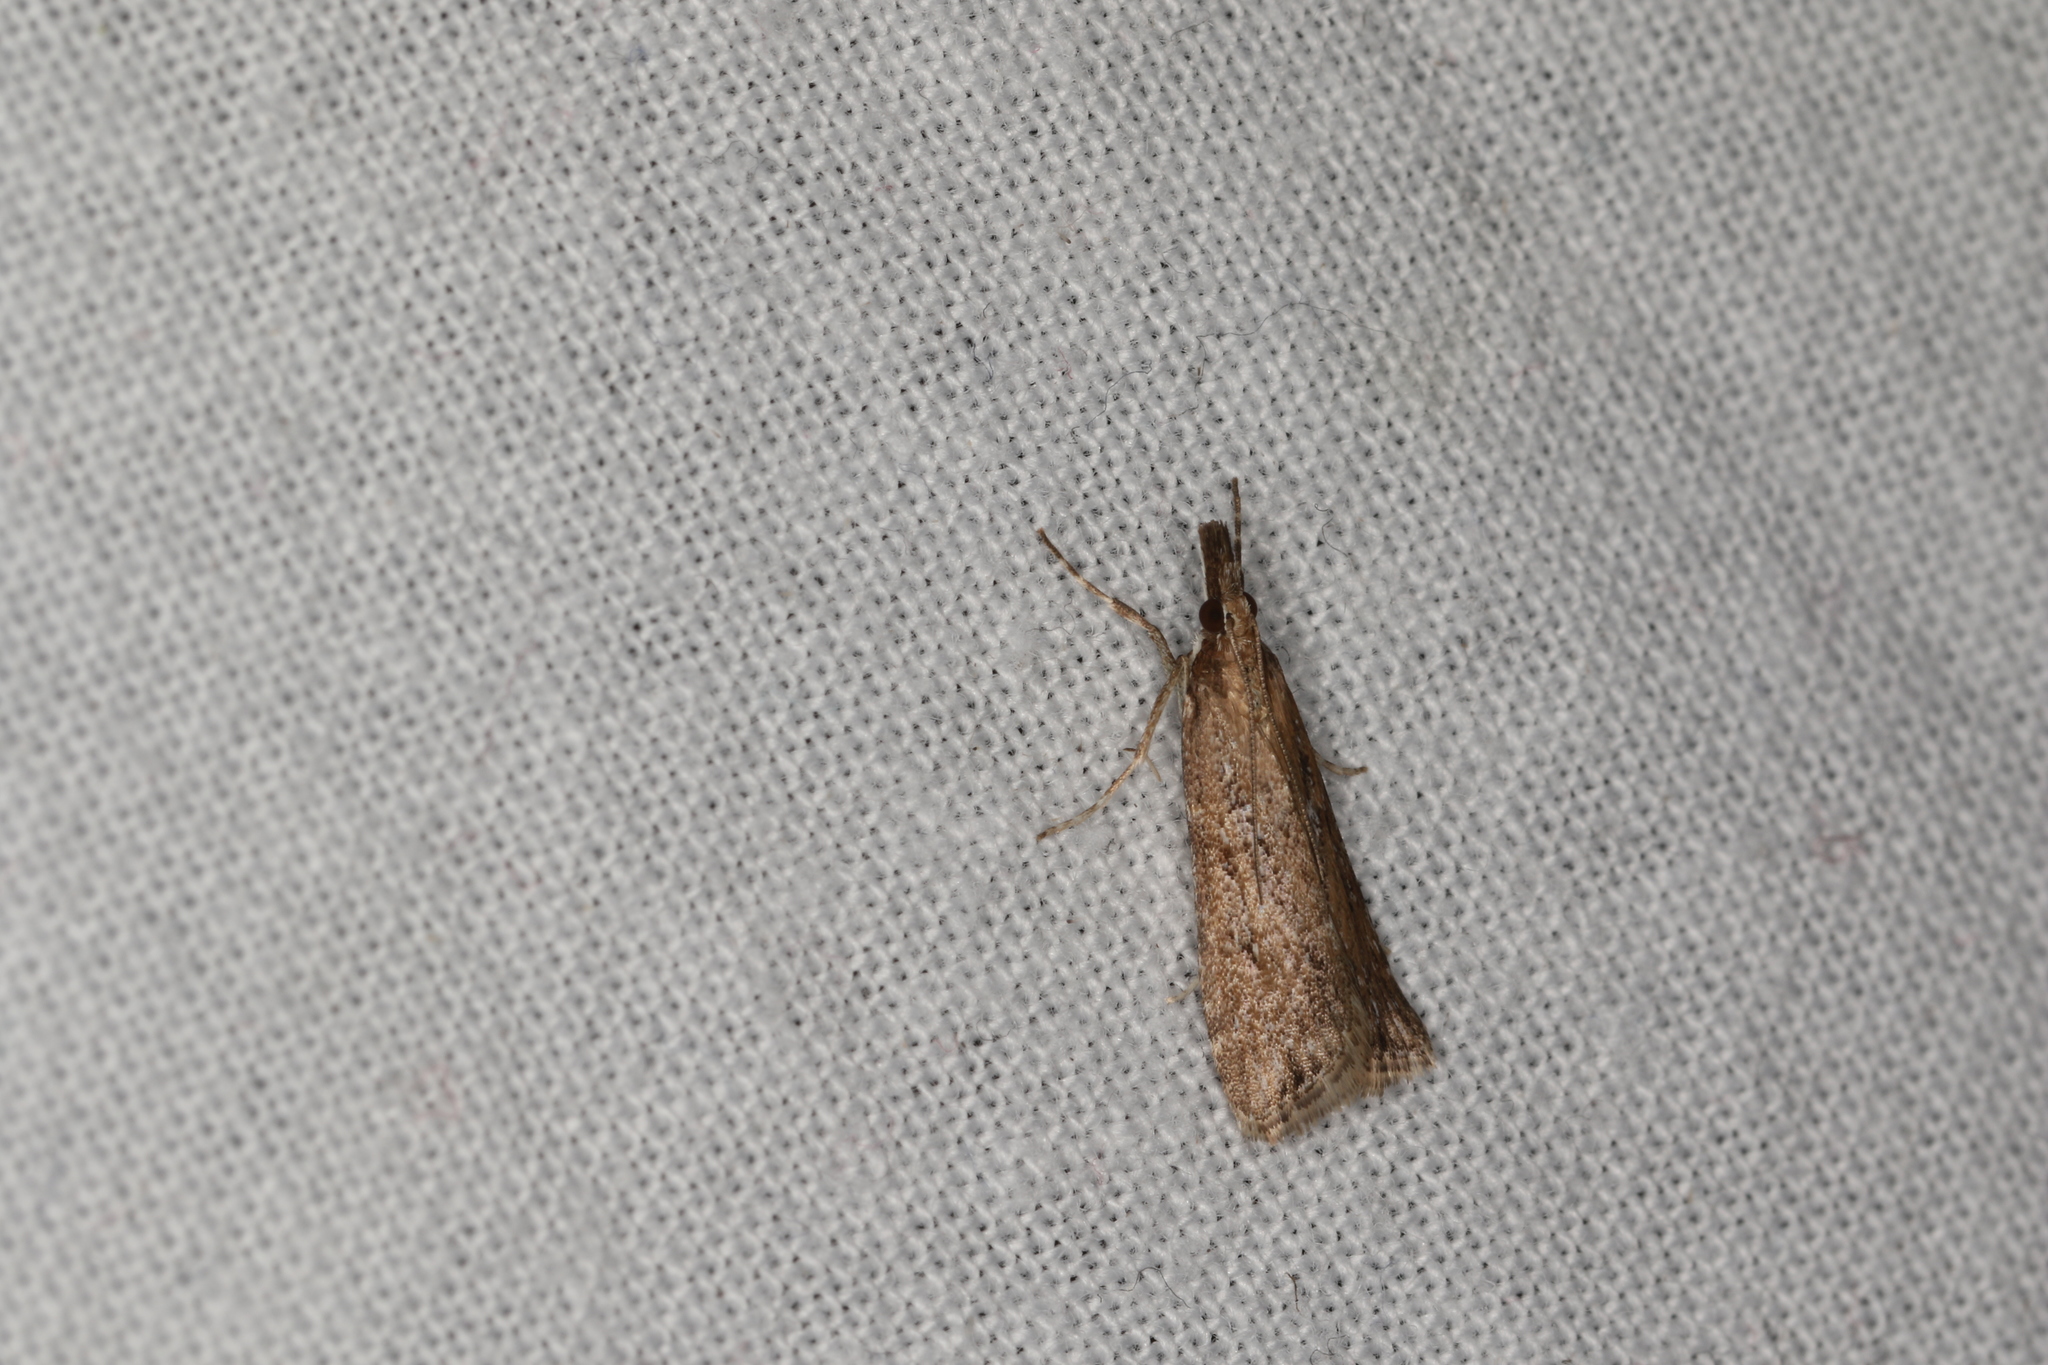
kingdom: Animalia
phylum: Arthropoda
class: Insecta
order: Lepidoptera
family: Crambidae
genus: Eudonia
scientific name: Eudonia cleodoralis
